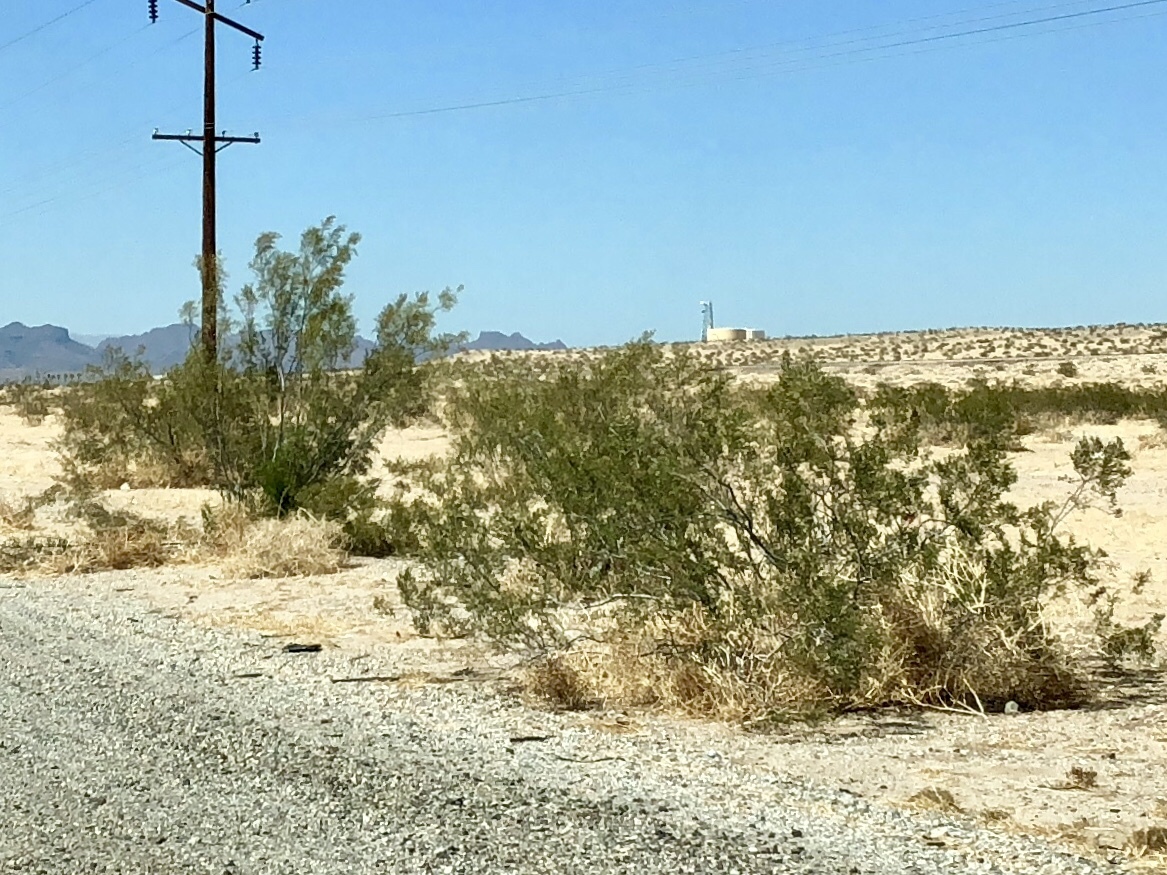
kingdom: Plantae
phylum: Tracheophyta
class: Magnoliopsida
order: Zygophyllales
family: Zygophyllaceae
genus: Larrea
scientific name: Larrea tridentata
